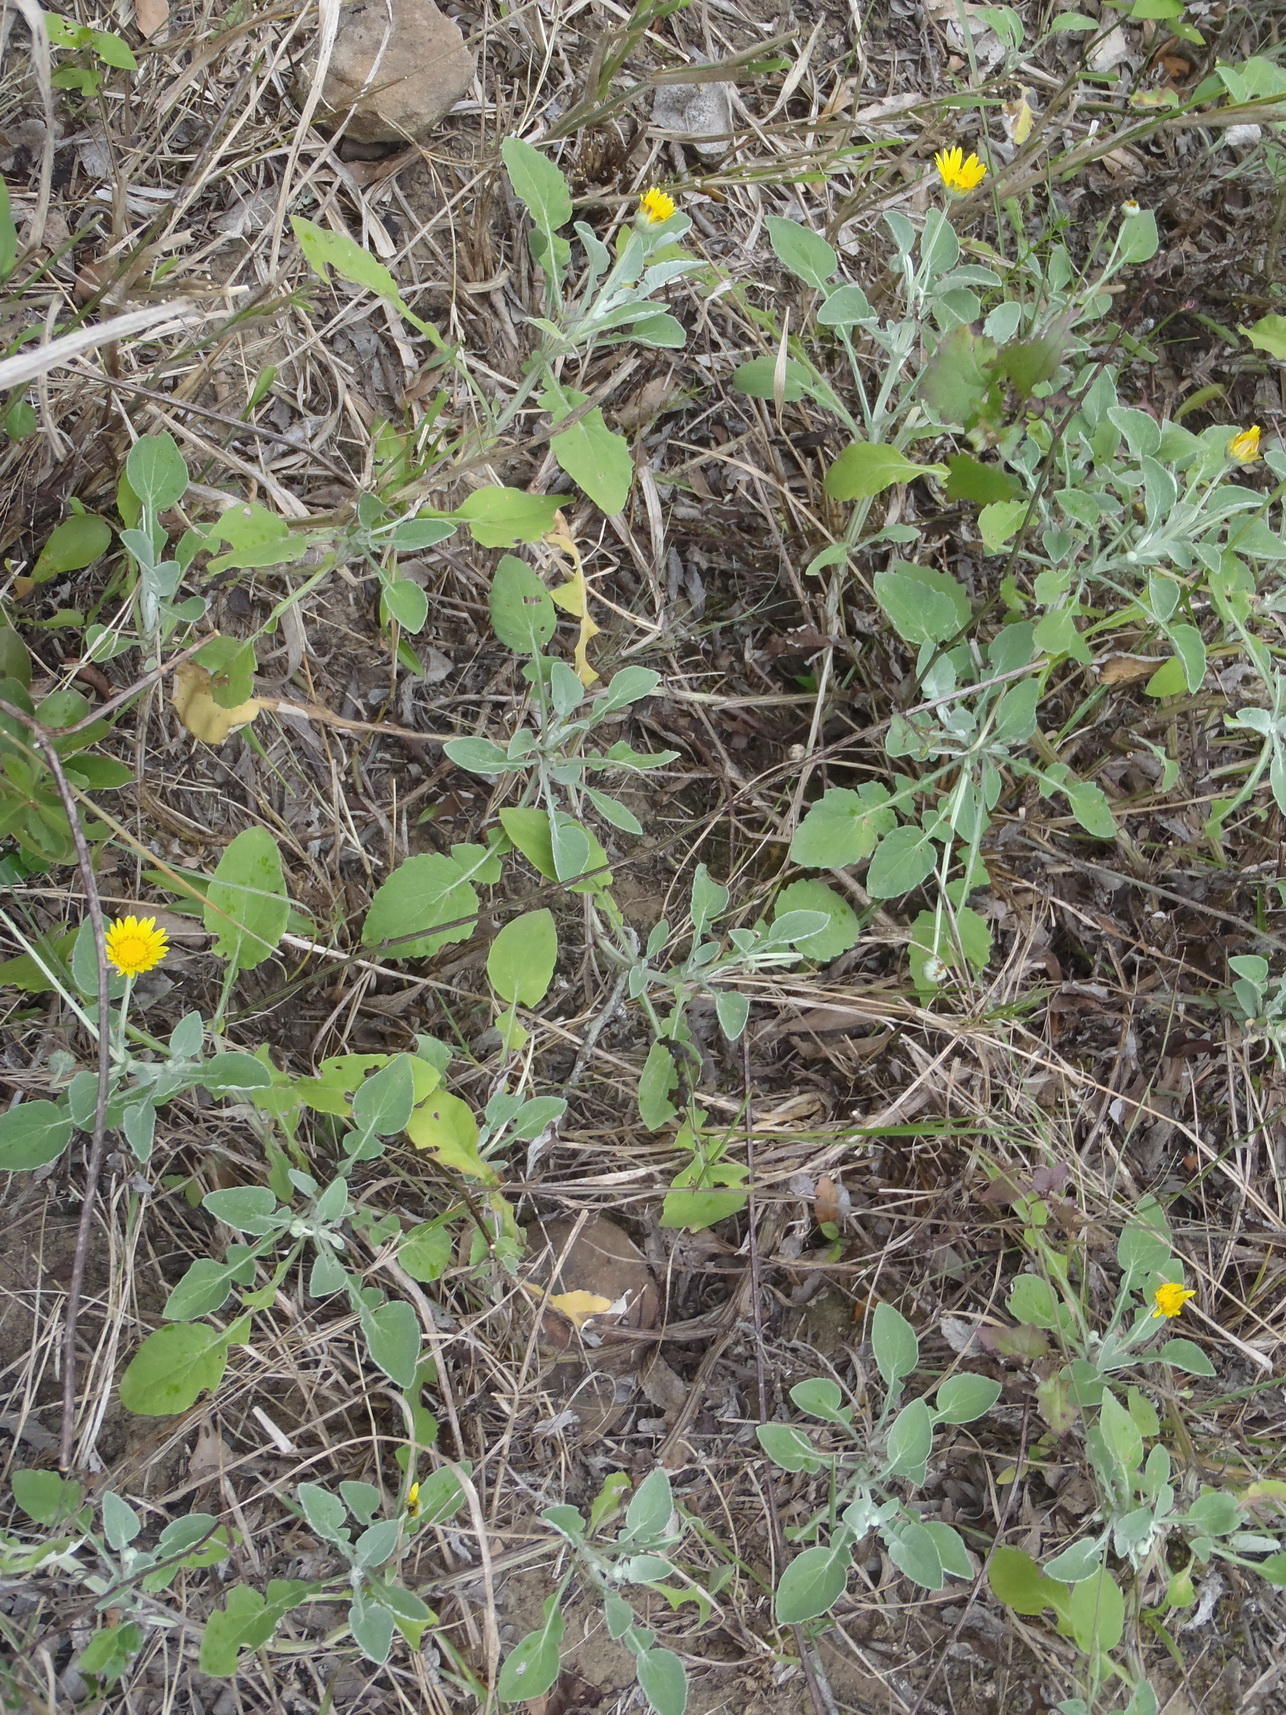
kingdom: Plantae
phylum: Tracheophyta
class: Magnoliopsida
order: Asterales
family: Asteraceae
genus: Arctotis
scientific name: Arctotis arctotoides
